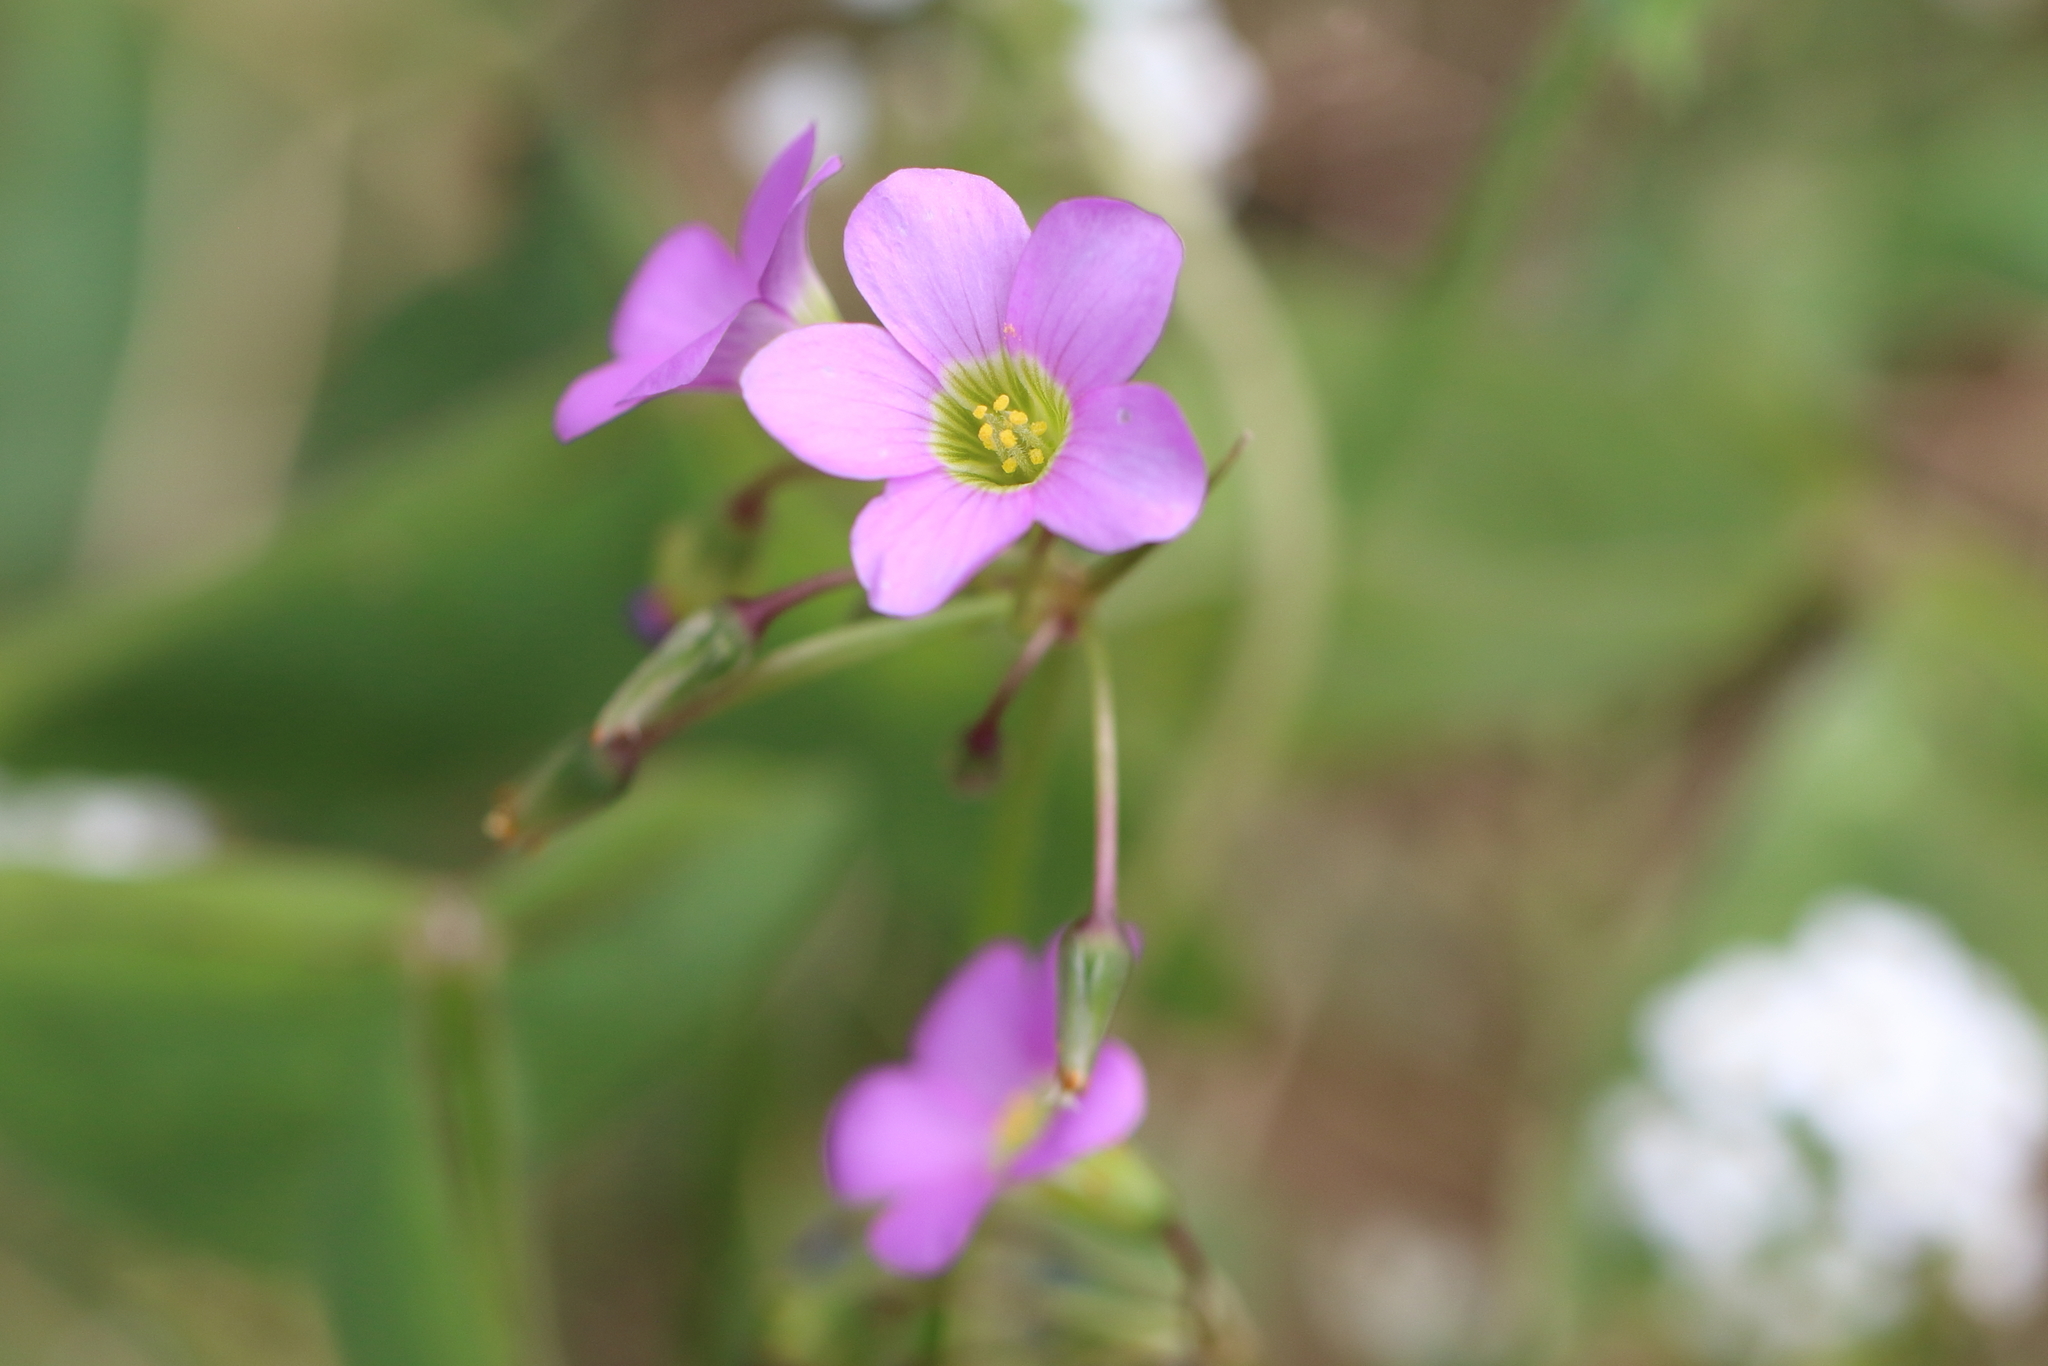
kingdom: Plantae
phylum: Tracheophyta
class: Magnoliopsida
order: Oxalidales
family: Oxalidaceae
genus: Oxalis
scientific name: Oxalis latifolia
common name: Garden pink-sorrel
